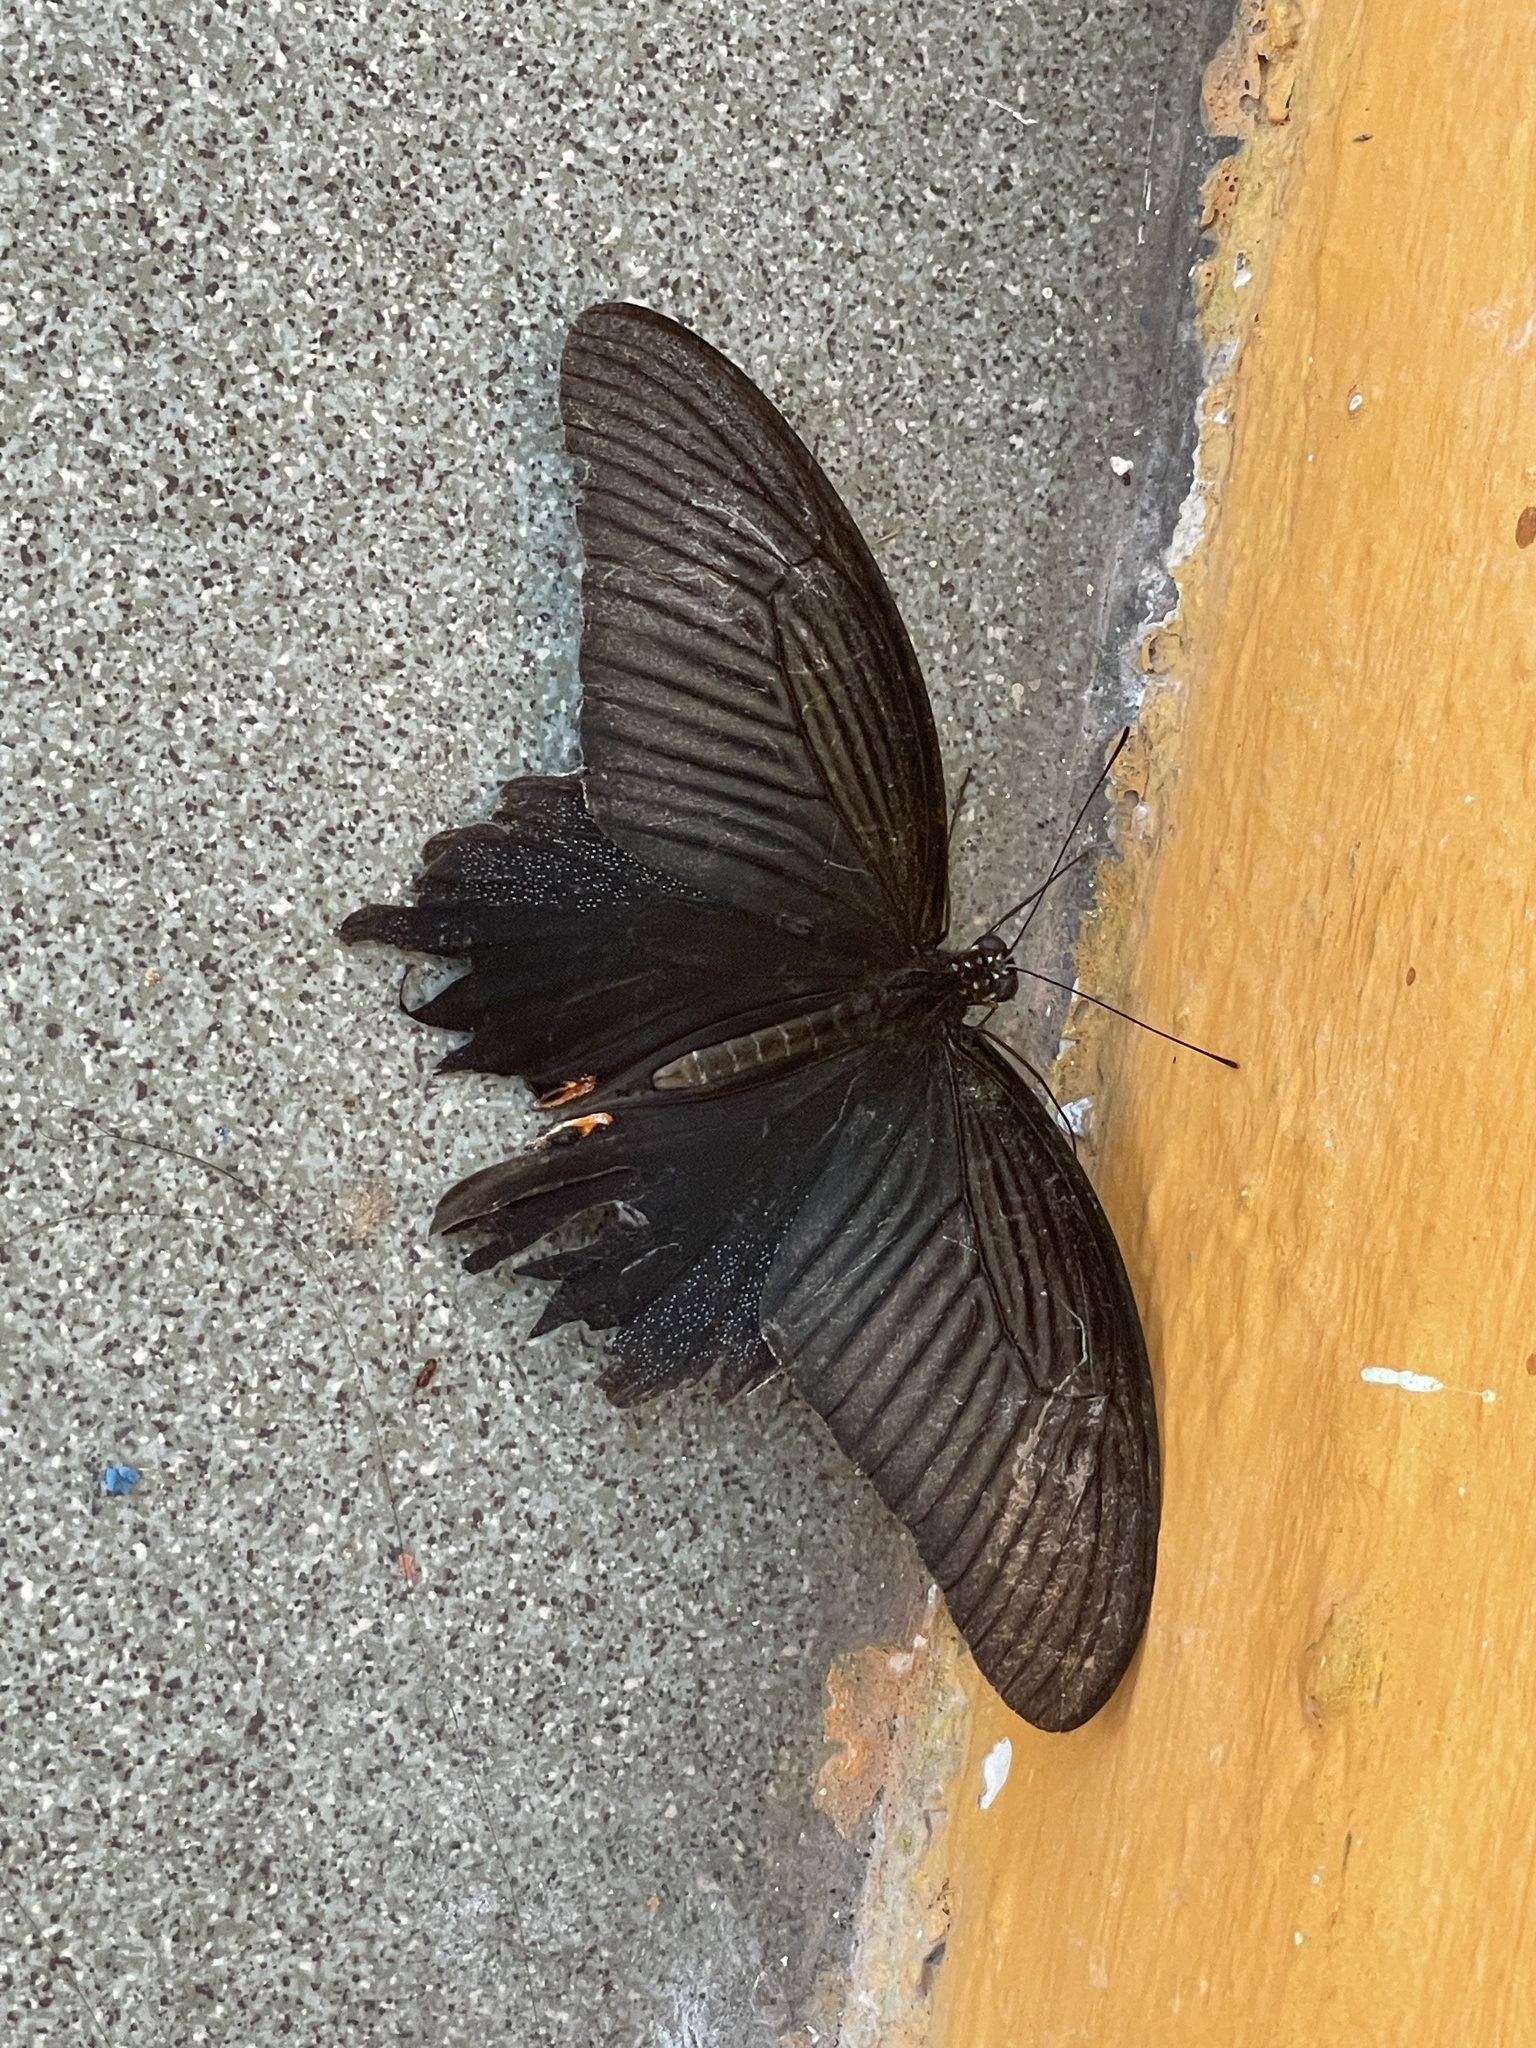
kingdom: Animalia
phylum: Arthropoda
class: Insecta
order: Lepidoptera
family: Papilionidae
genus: Papilio
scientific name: Papilio protenor
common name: Spangle
